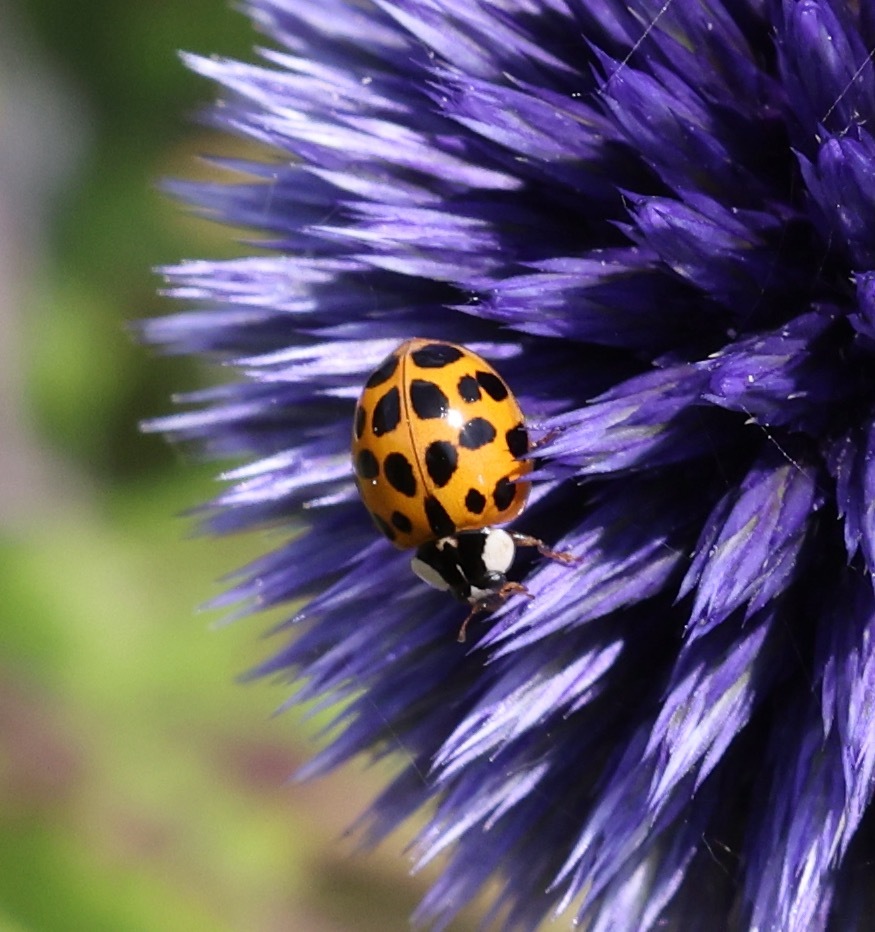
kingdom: Animalia
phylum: Arthropoda
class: Insecta
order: Coleoptera
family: Coccinellidae
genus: Harmonia
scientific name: Harmonia axyridis
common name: Harlequin ladybird
